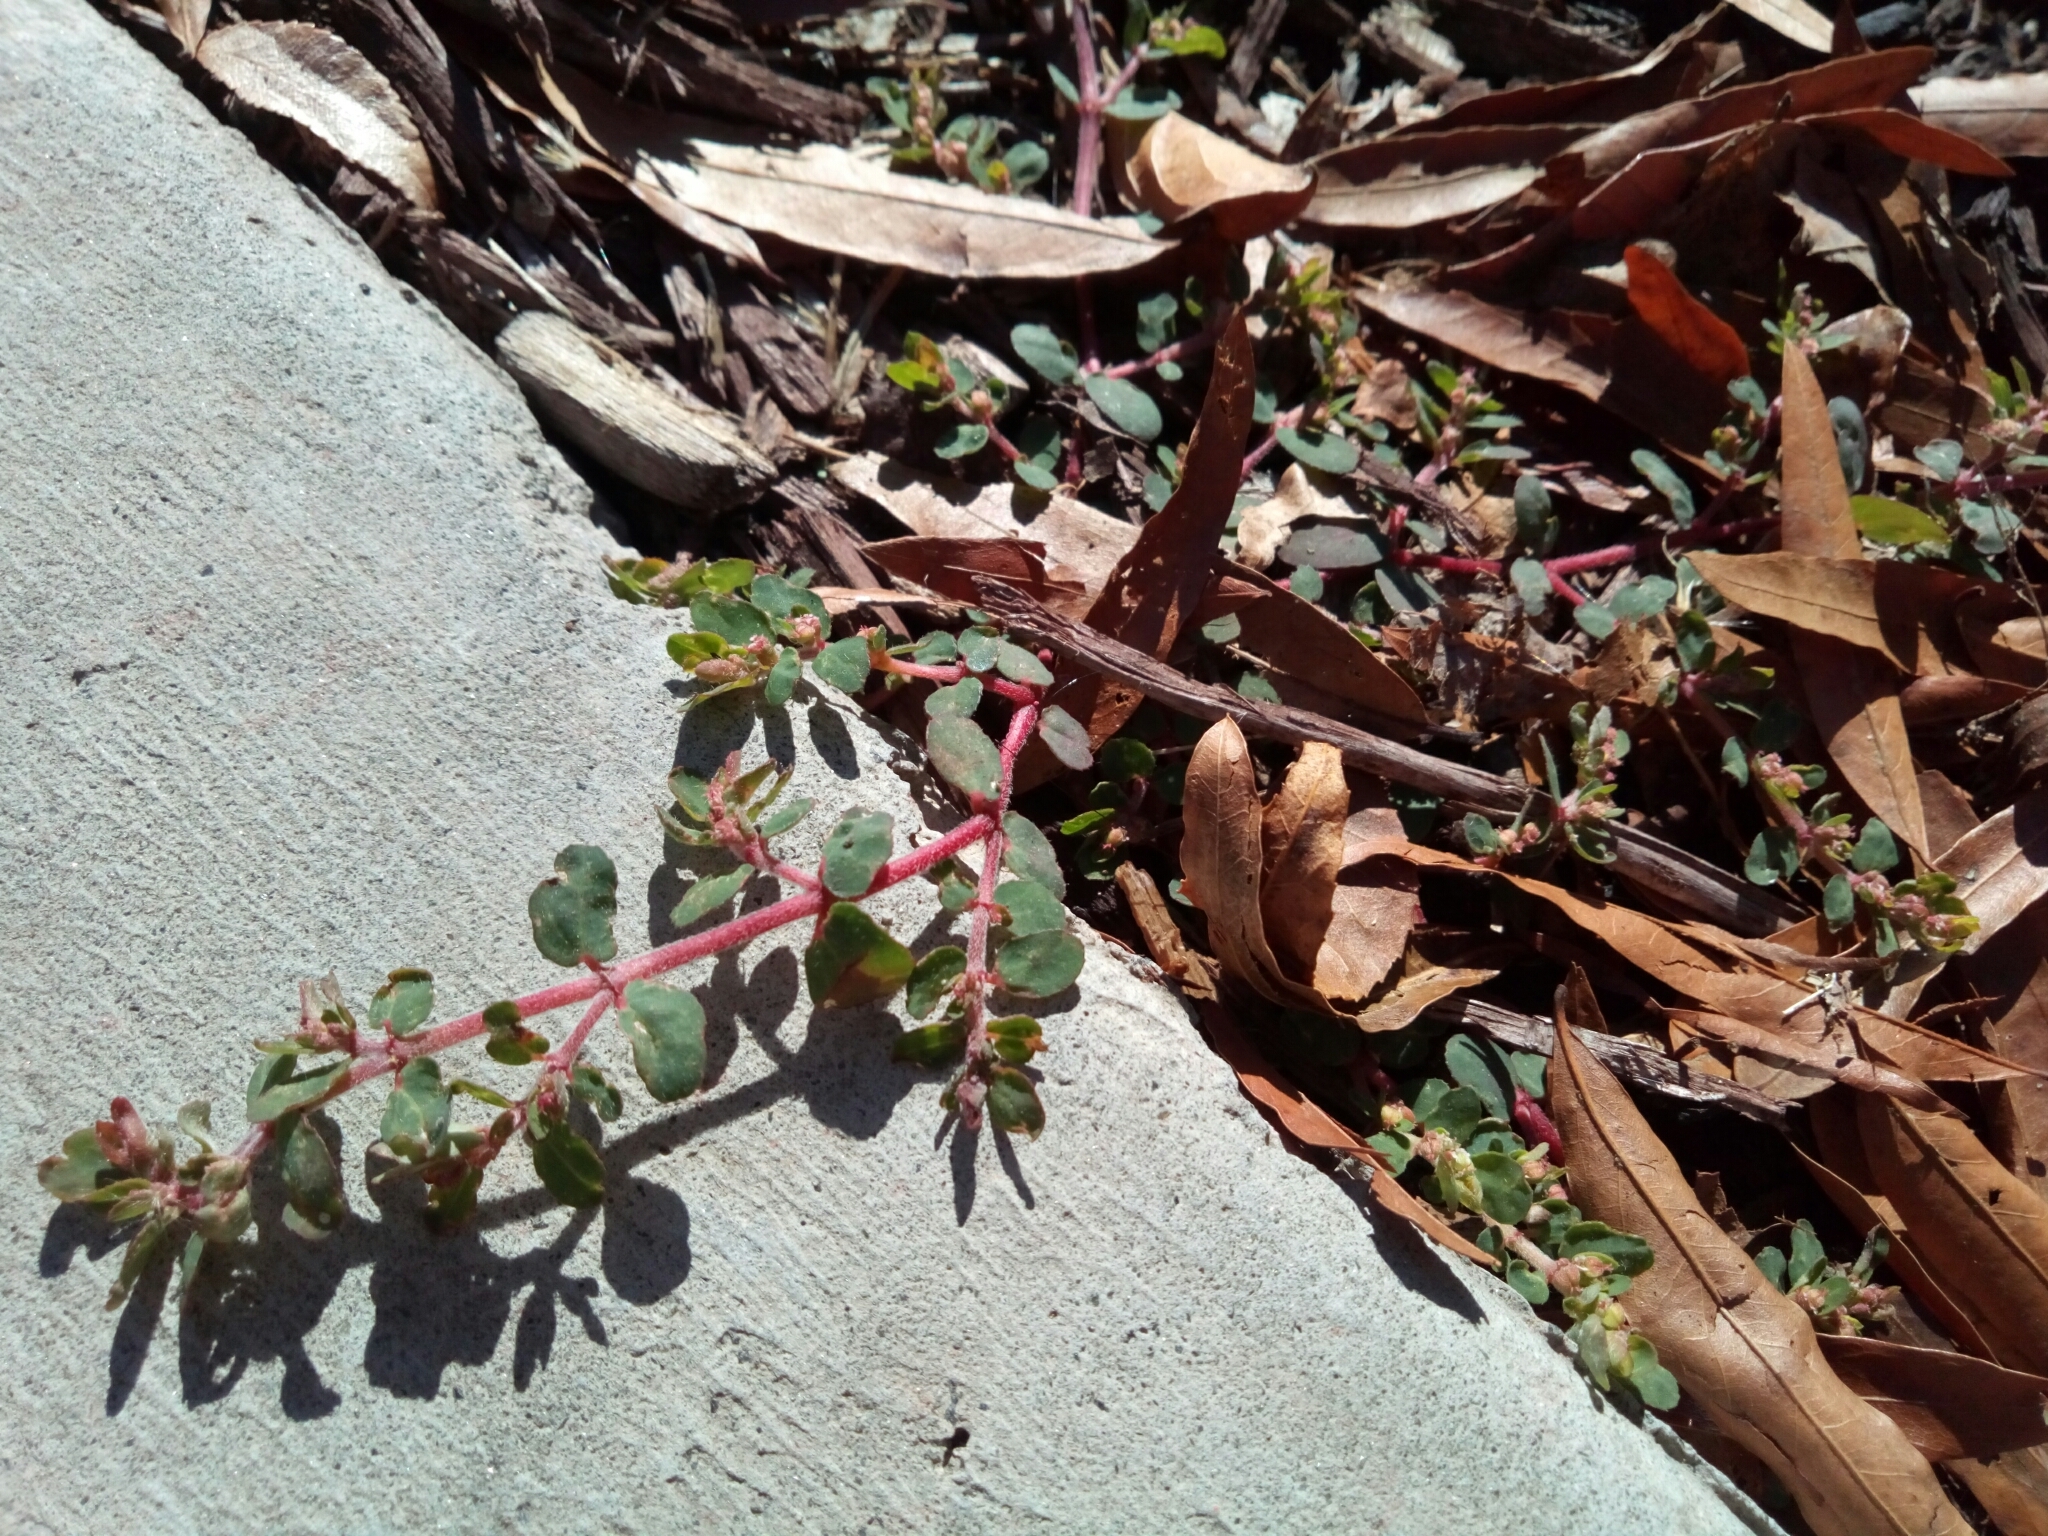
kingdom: Plantae
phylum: Tracheophyta
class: Magnoliopsida
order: Malpighiales
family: Euphorbiaceae
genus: Euphorbia
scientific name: Euphorbia maculata
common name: Spotted spurge
